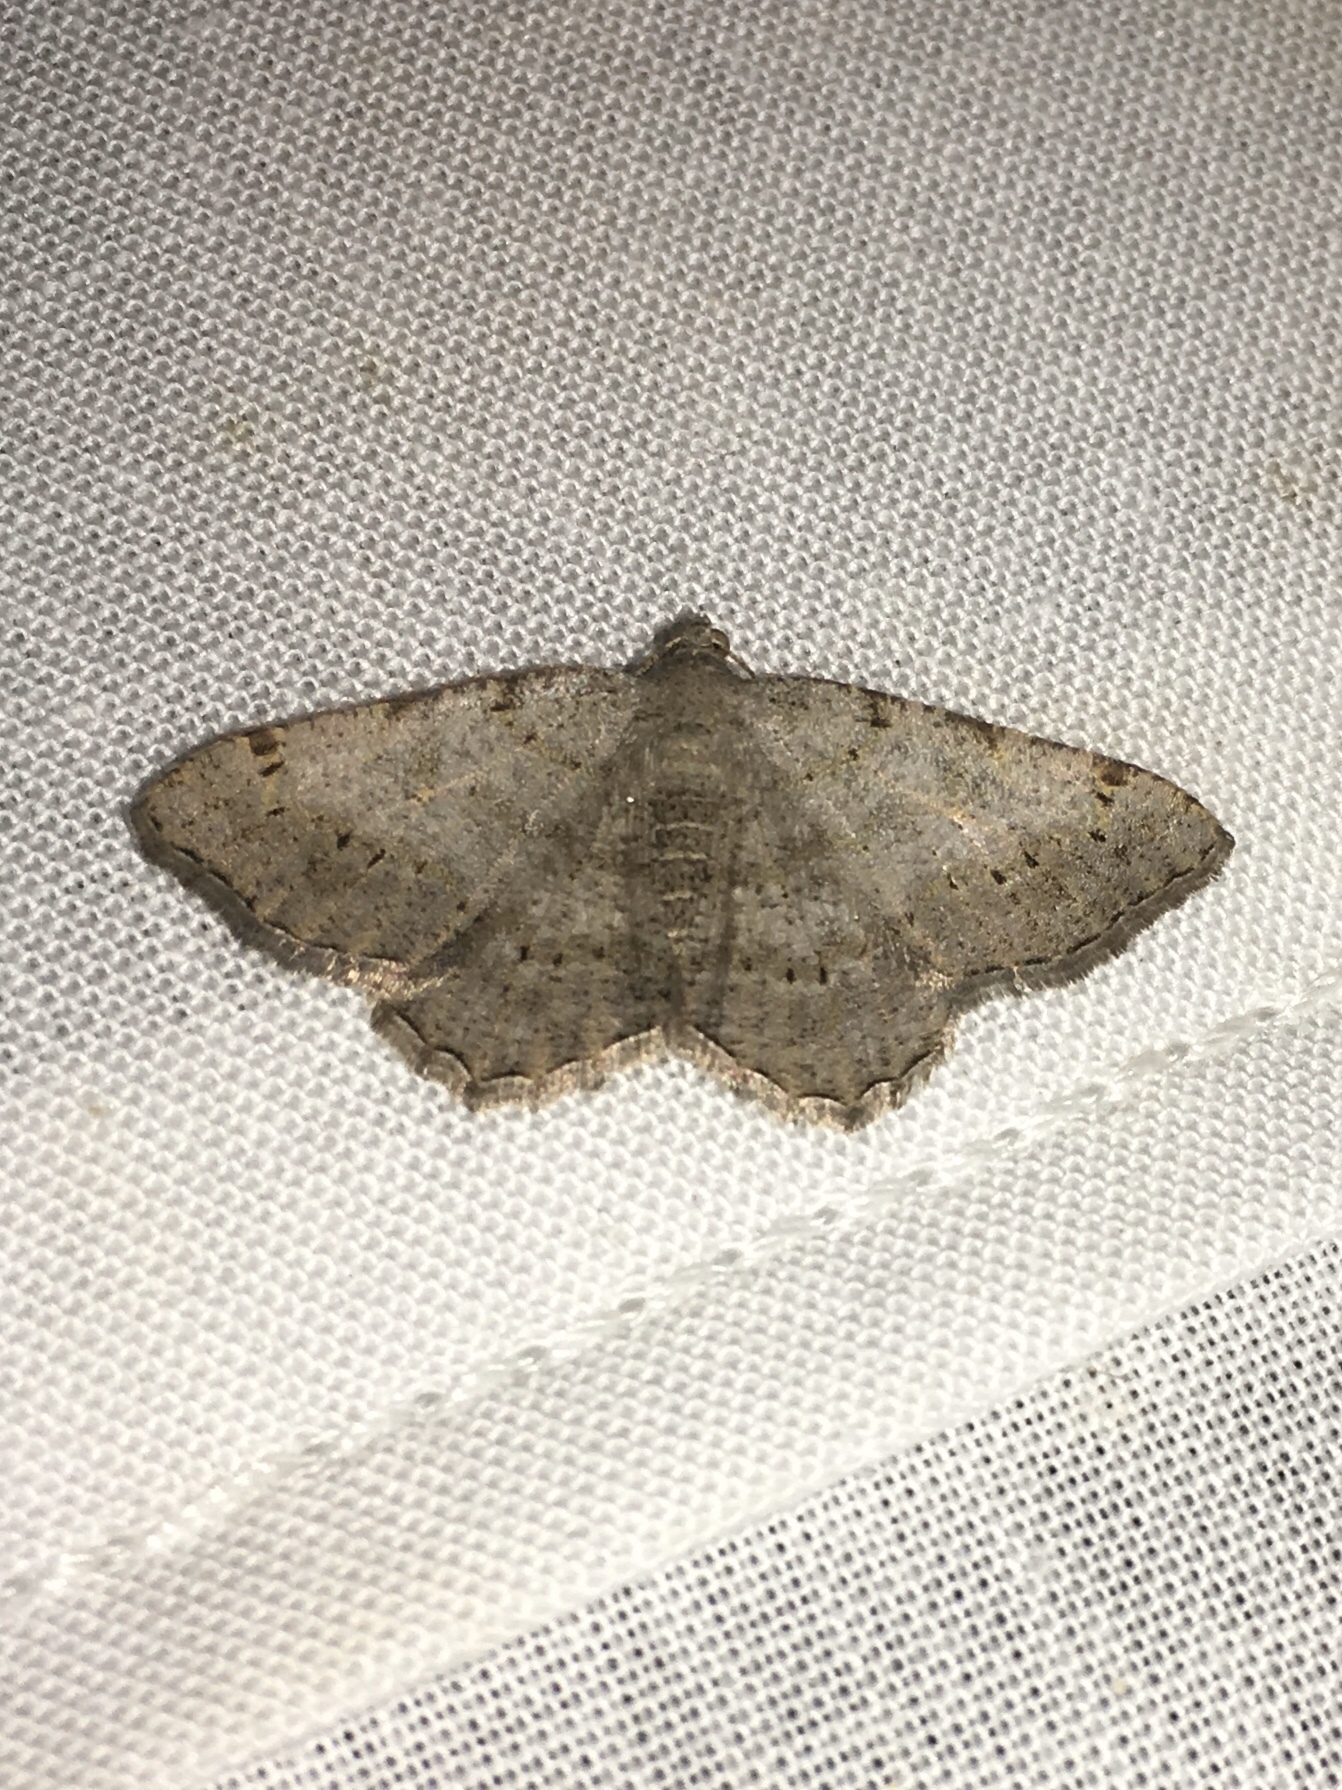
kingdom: Animalia
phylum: Arthropoda
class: Insecta
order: Lepidoptera
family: Geometridae
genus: Digrammia
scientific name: Digrammia ocellinata
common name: Faint-spotted angle
